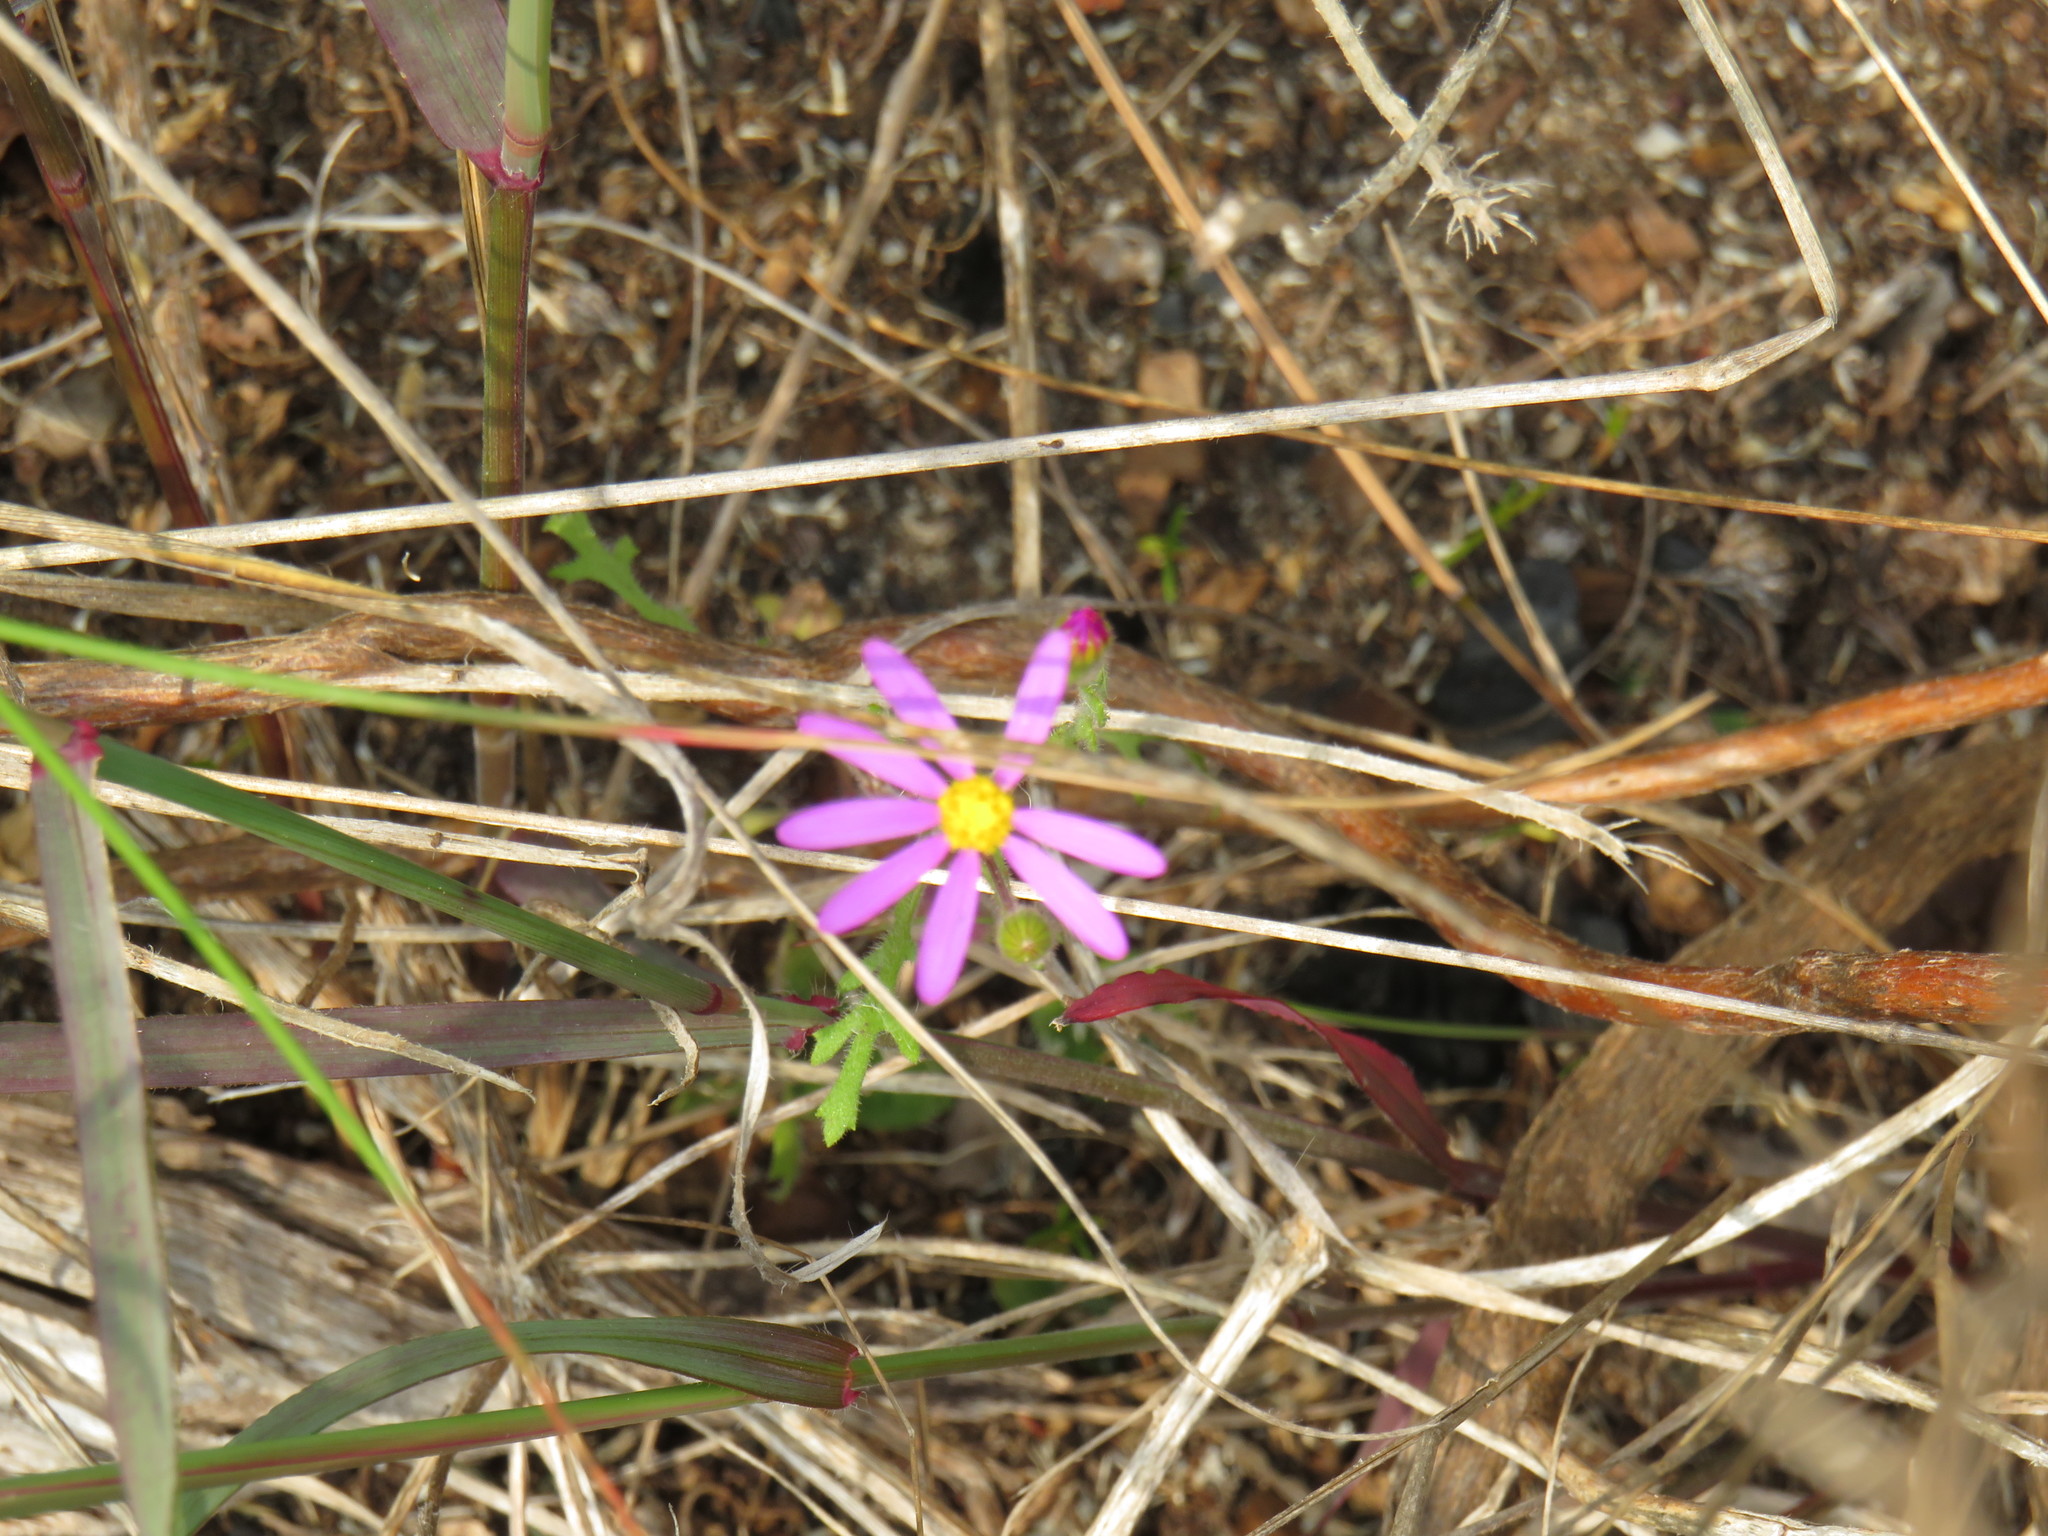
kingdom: Plantae
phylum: Tracheophyta
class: Magnoliopsida
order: Asterales
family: Asteraceae
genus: Senecio
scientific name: Senecio arenarius
